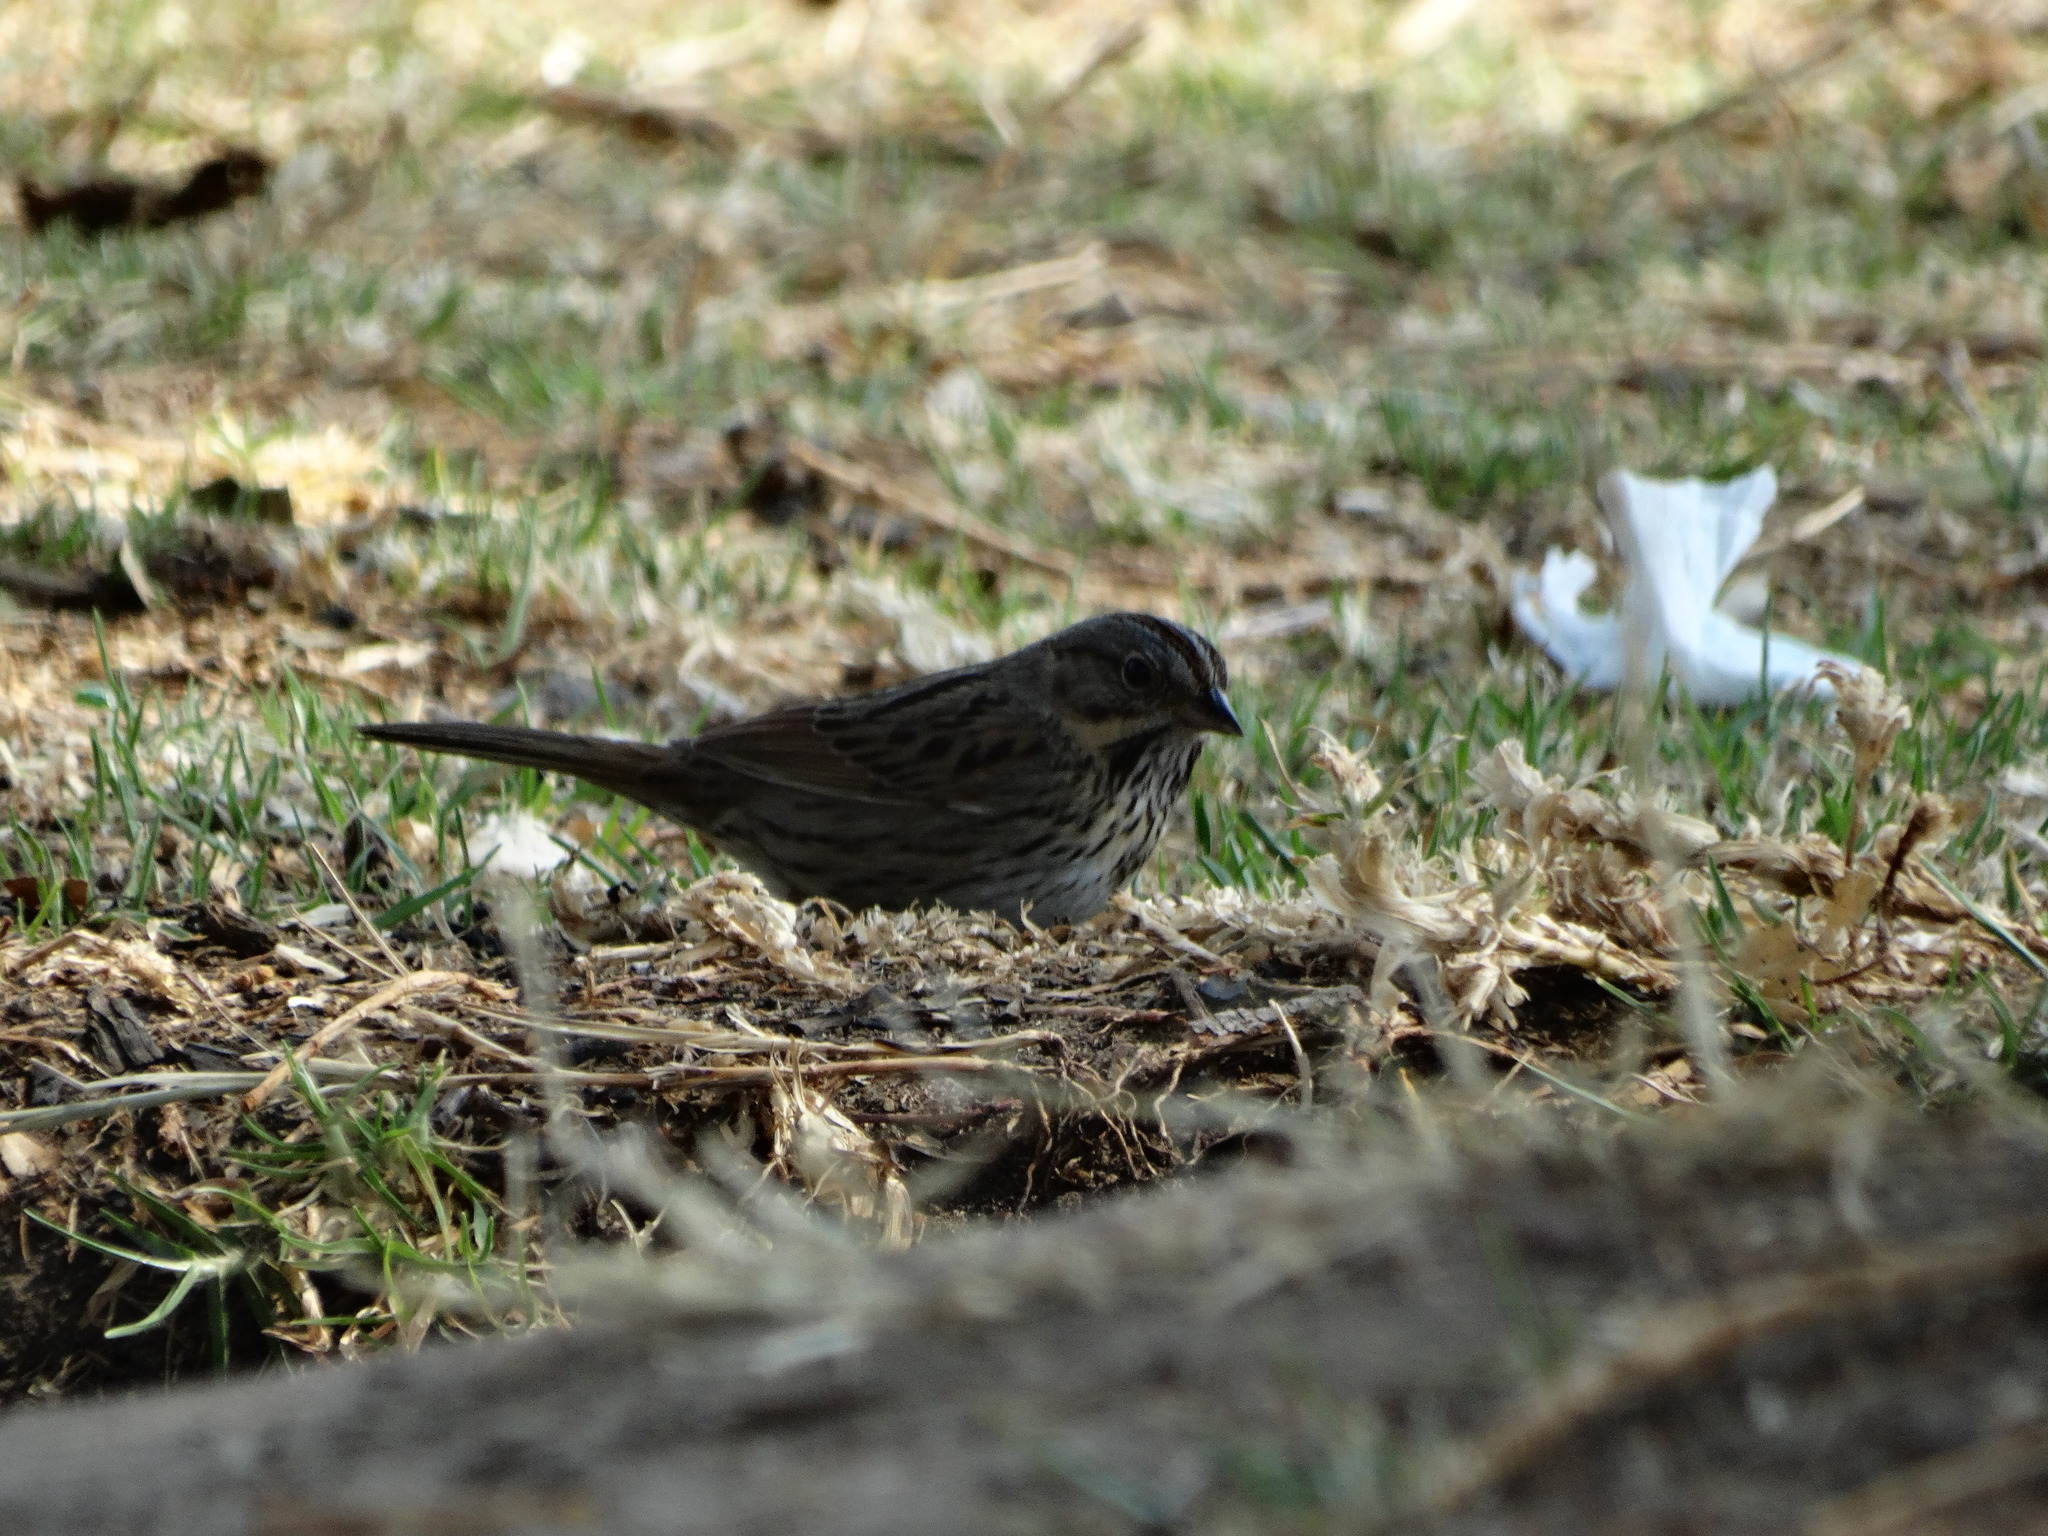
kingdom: Animalia
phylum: Chordata
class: Aves
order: Passeriformes
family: Passerellidae
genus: Melospiza
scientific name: Melospiza lincolnii
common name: Lincoln's sparrow
